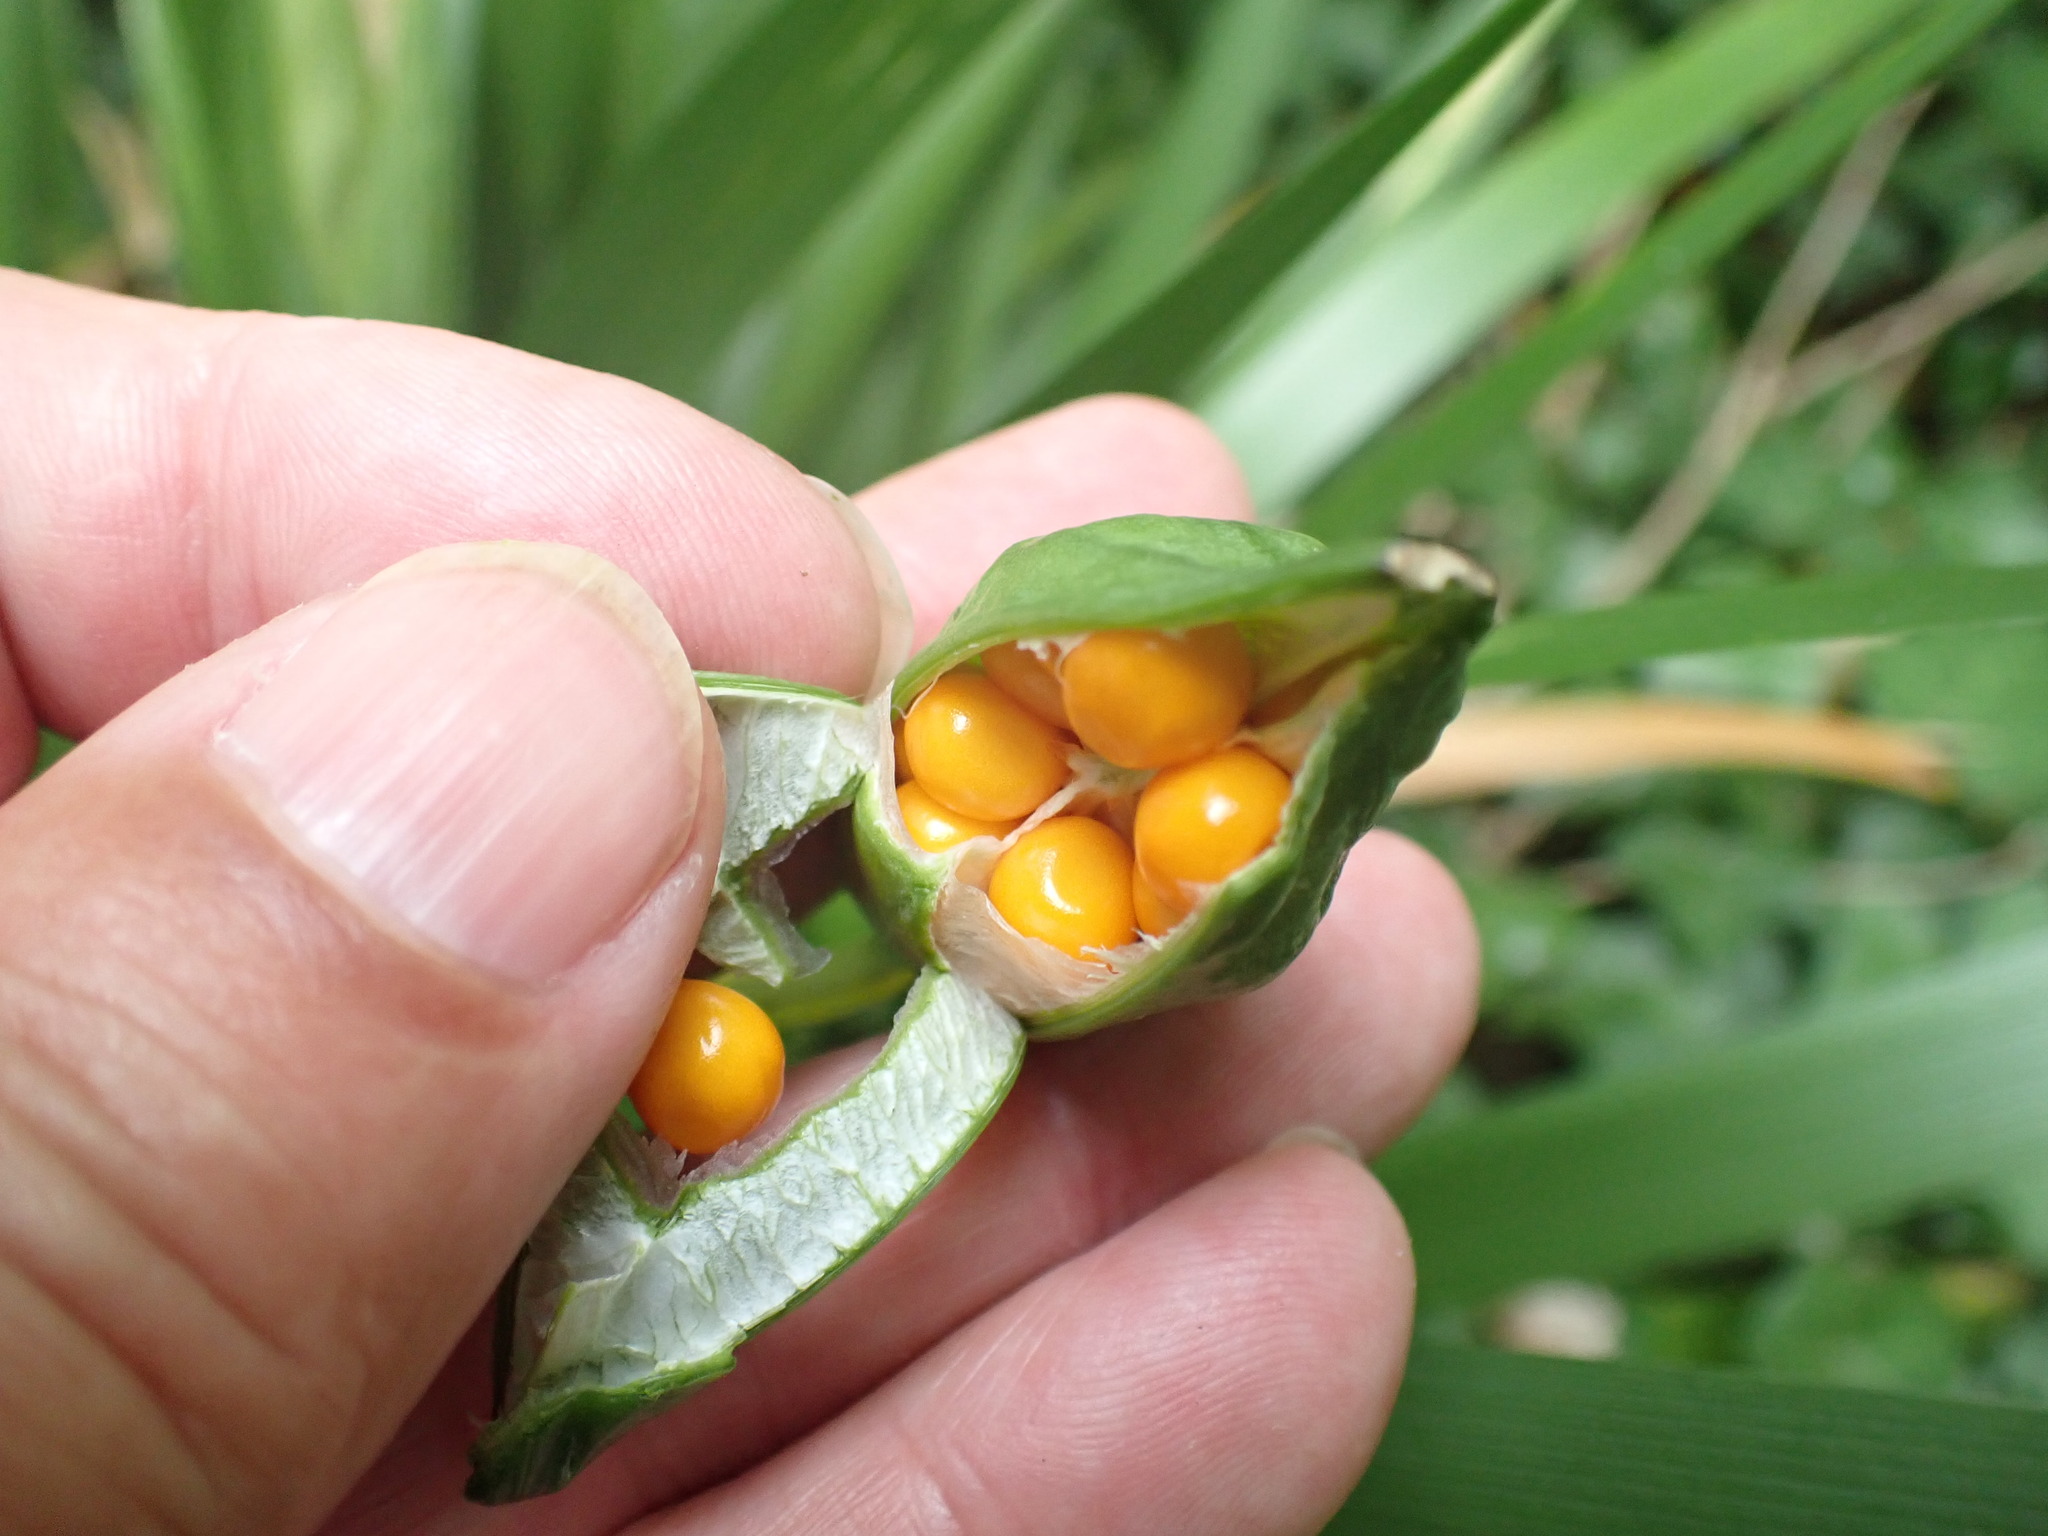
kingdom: Plantae
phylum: Tracheophyta
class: Liliopsida
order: Asparagales
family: Iridaceae
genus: Iris
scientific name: Iris foetidissima
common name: Stinking iris
